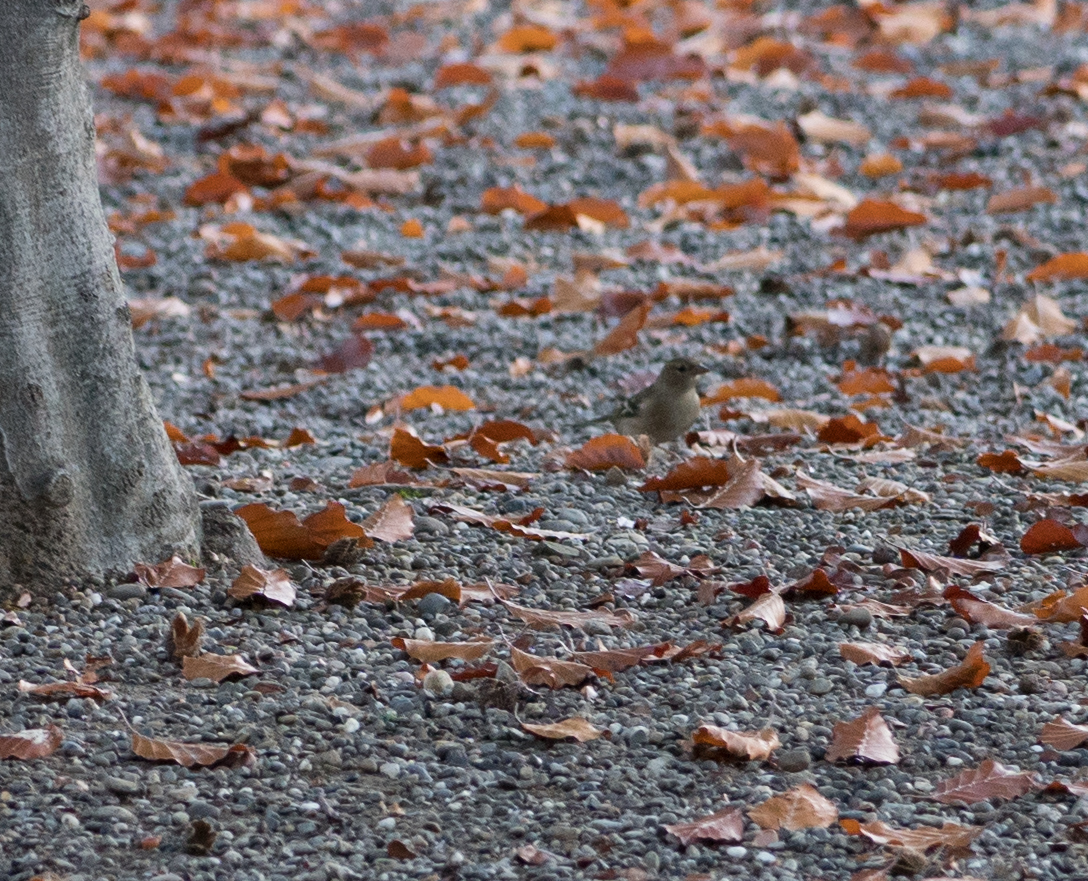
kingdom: Animalia
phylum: Chordata
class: Aves
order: Passeriformes
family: Fringillidae
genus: Fringilla
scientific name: Fringilla coelebs
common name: Common chaffinch
